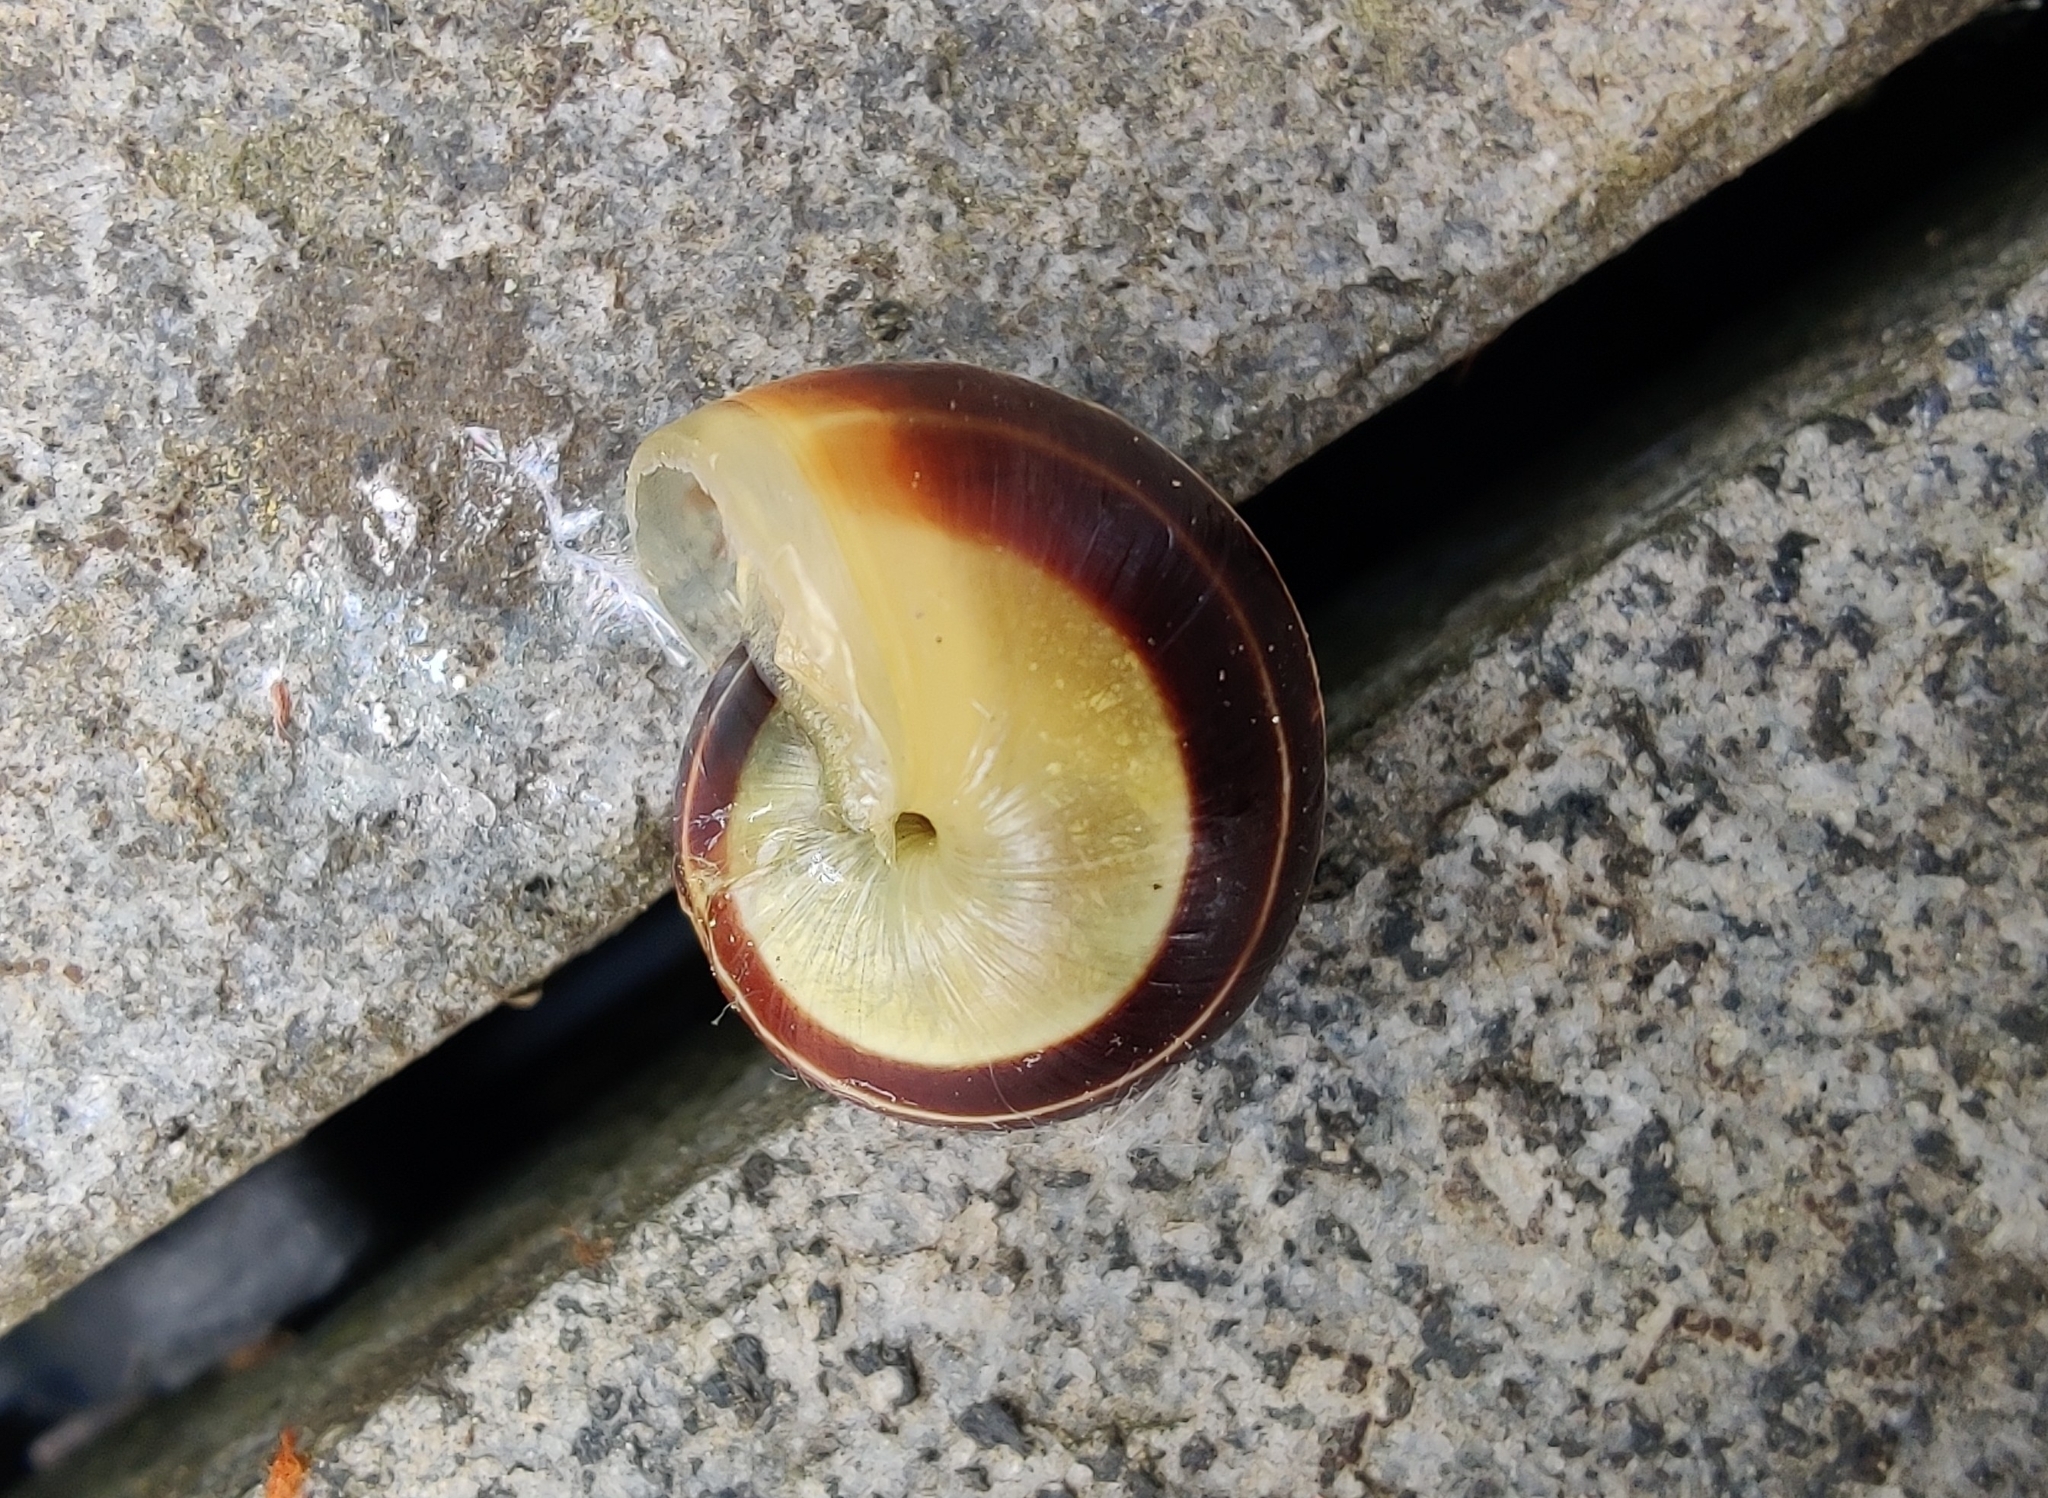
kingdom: Animalia
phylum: Mollusca
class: Gastropoda
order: Stylommatophora
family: Helicidae
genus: Cepaea
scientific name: Cepaea
